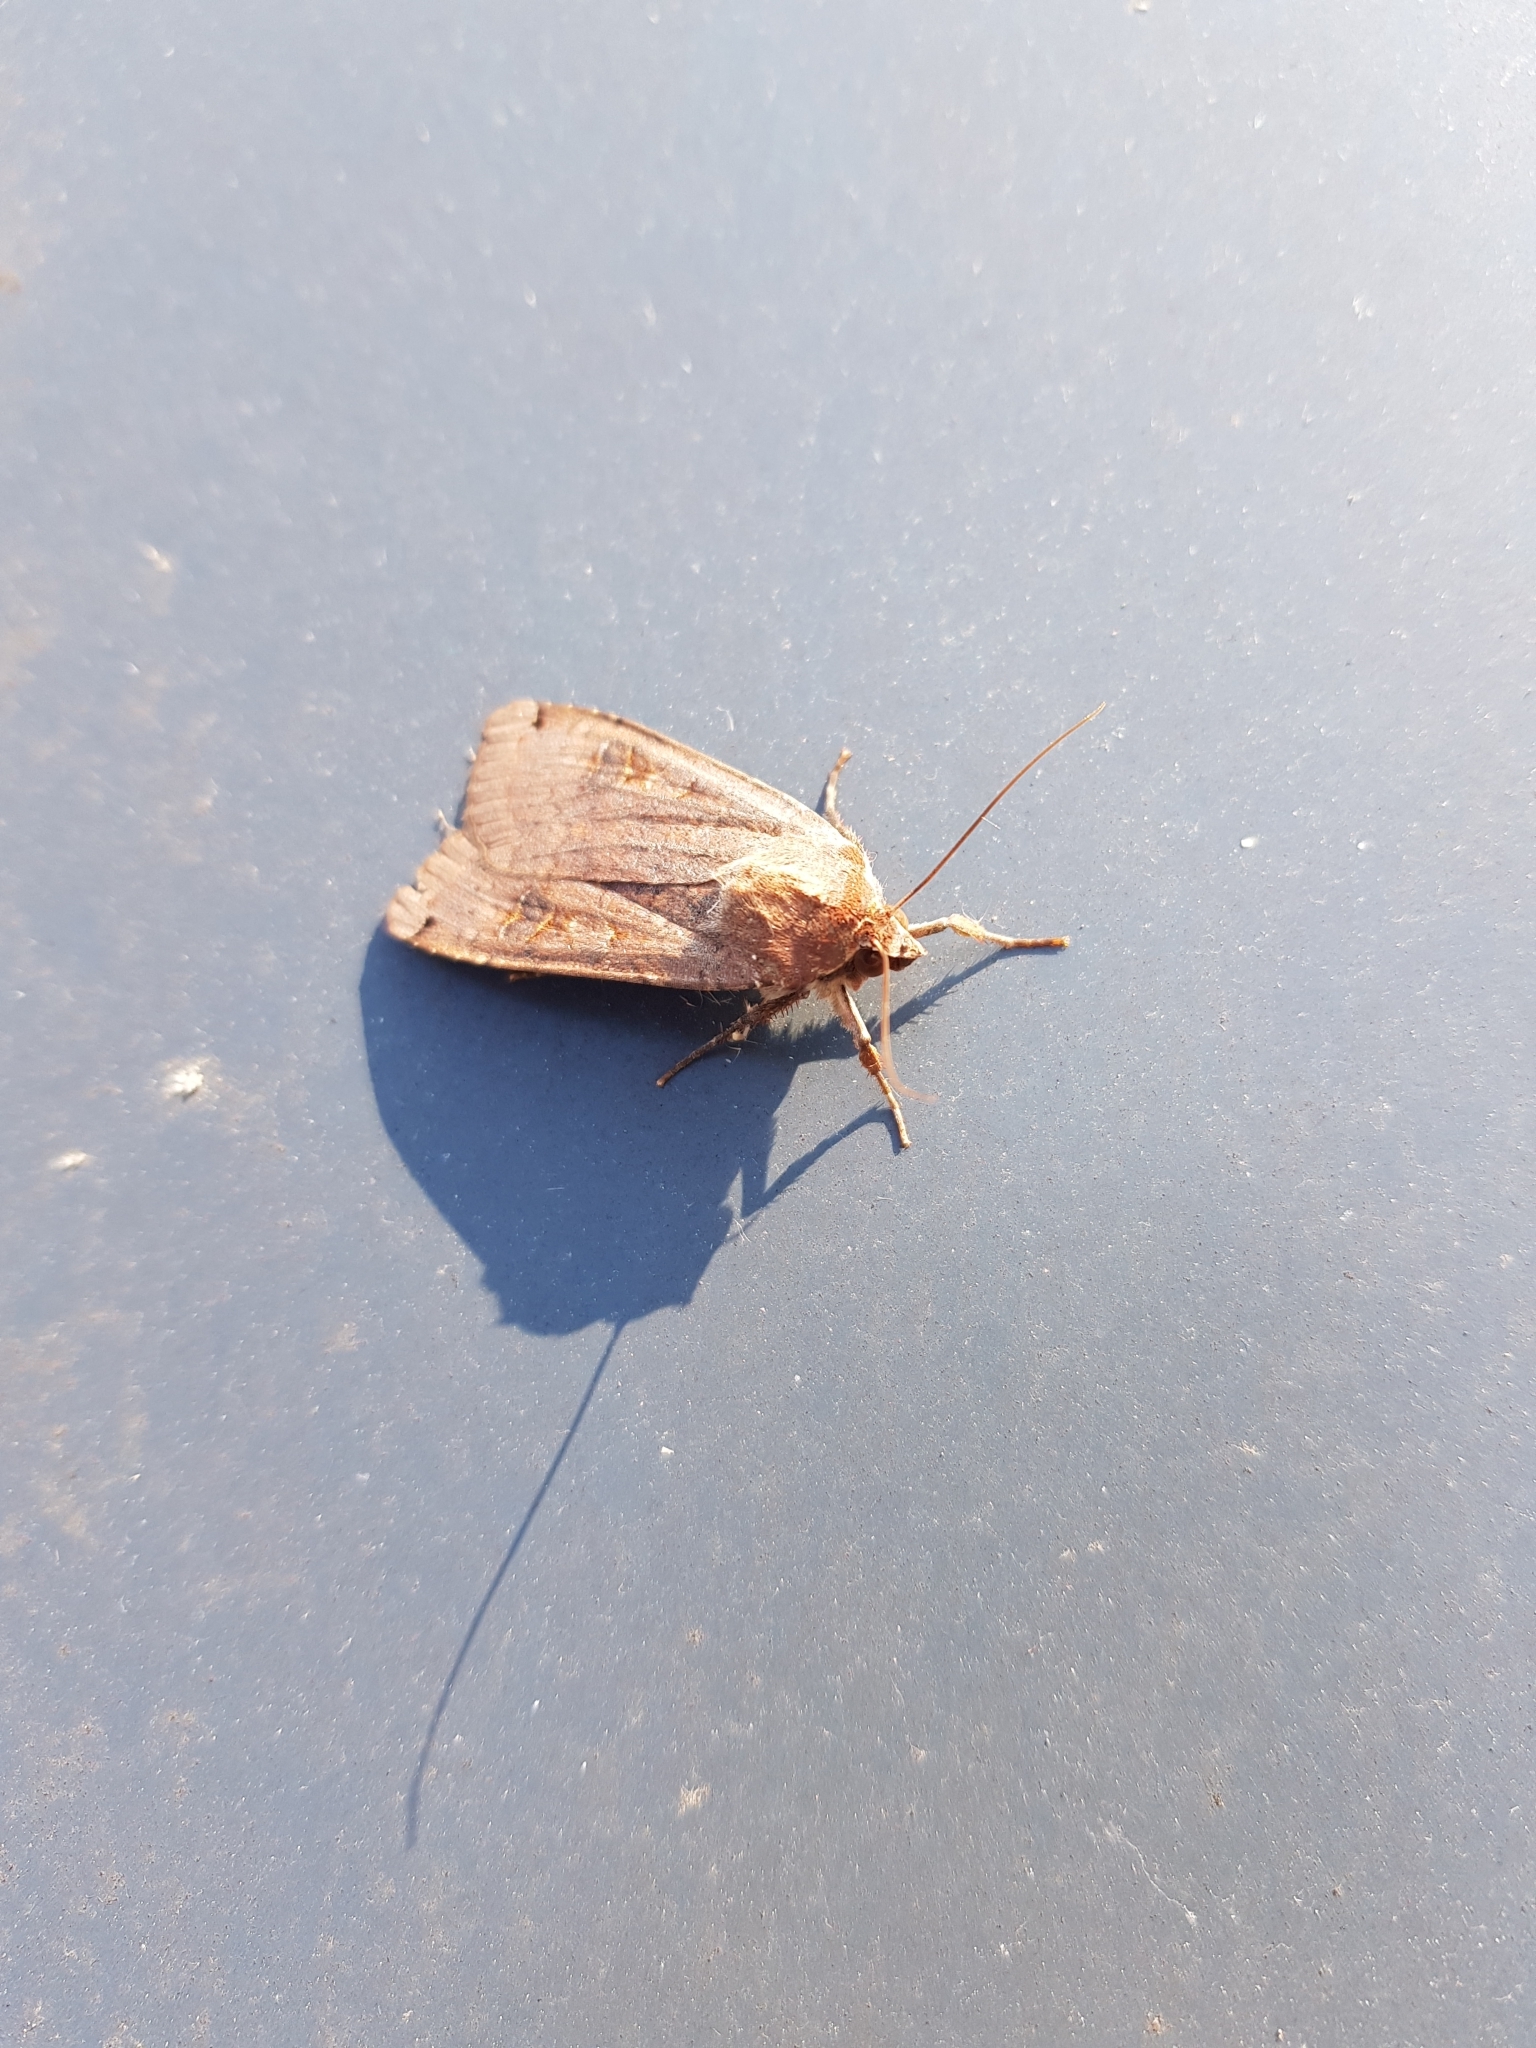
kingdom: Animalia
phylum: Arthropoda
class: Insecta
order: Lepidoptera
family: Noctuidae
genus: Noctua
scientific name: Noctua pronuba
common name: Large yellow underwing
